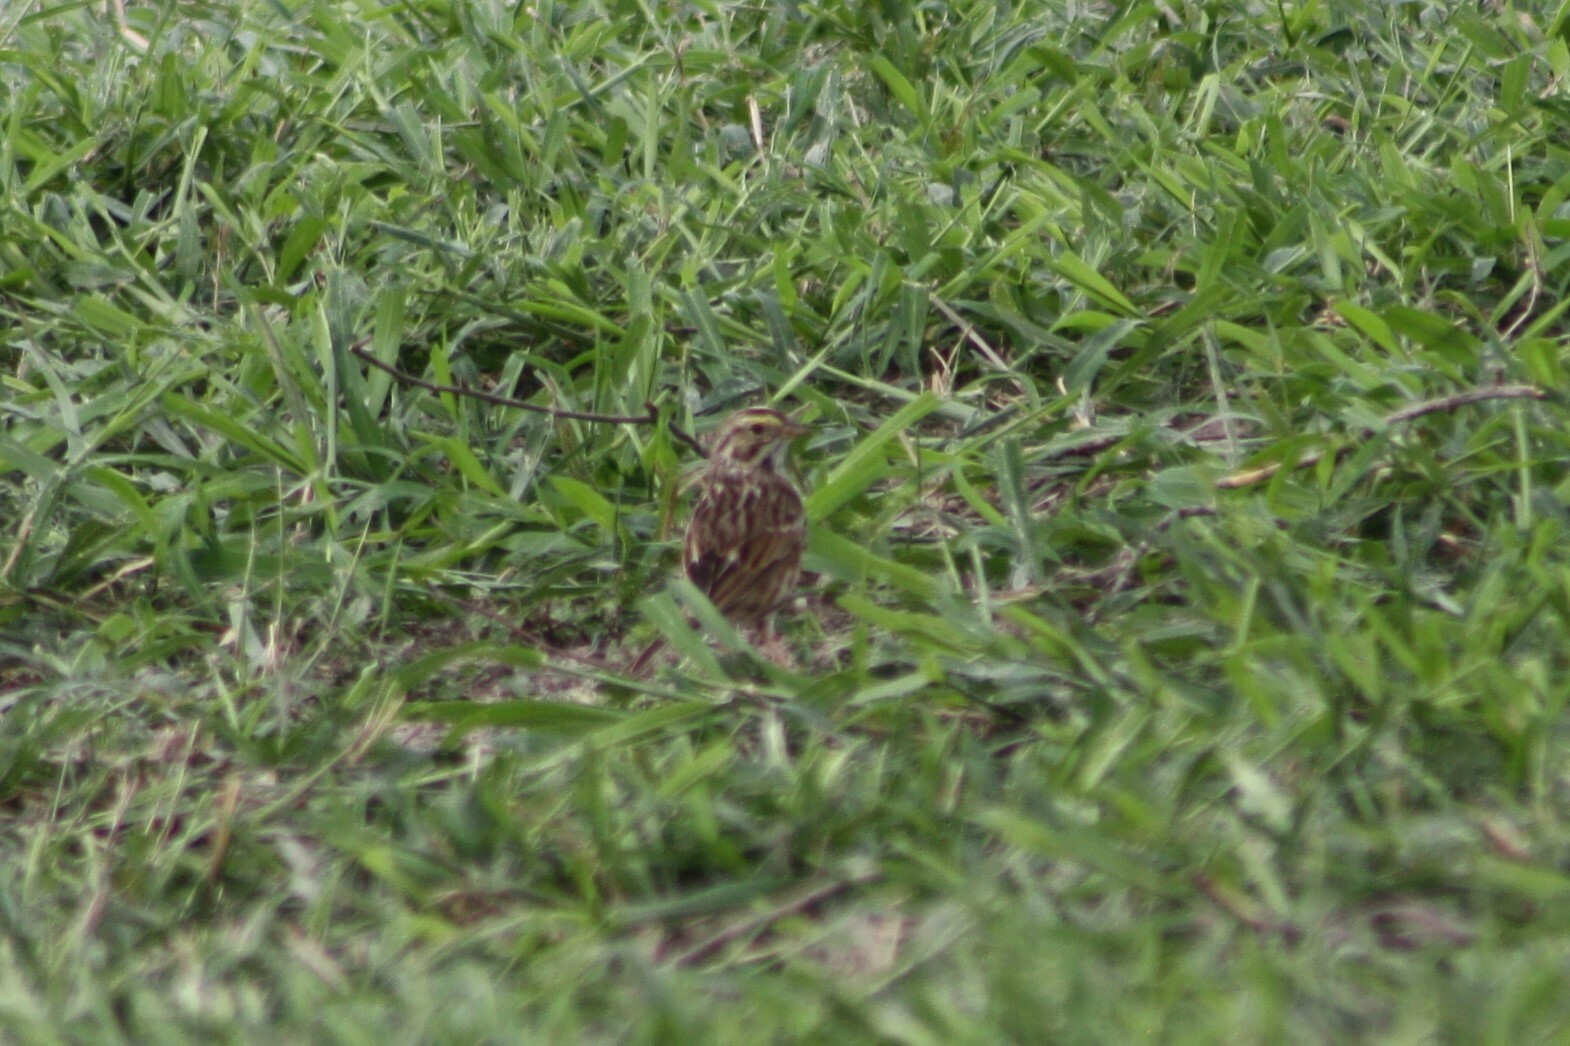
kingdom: Animalia
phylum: Chordata
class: Aves
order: Passeriformes
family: Passerellidae
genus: Passerculus
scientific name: Passerculus sandwichensis
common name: Savannah sparrow
